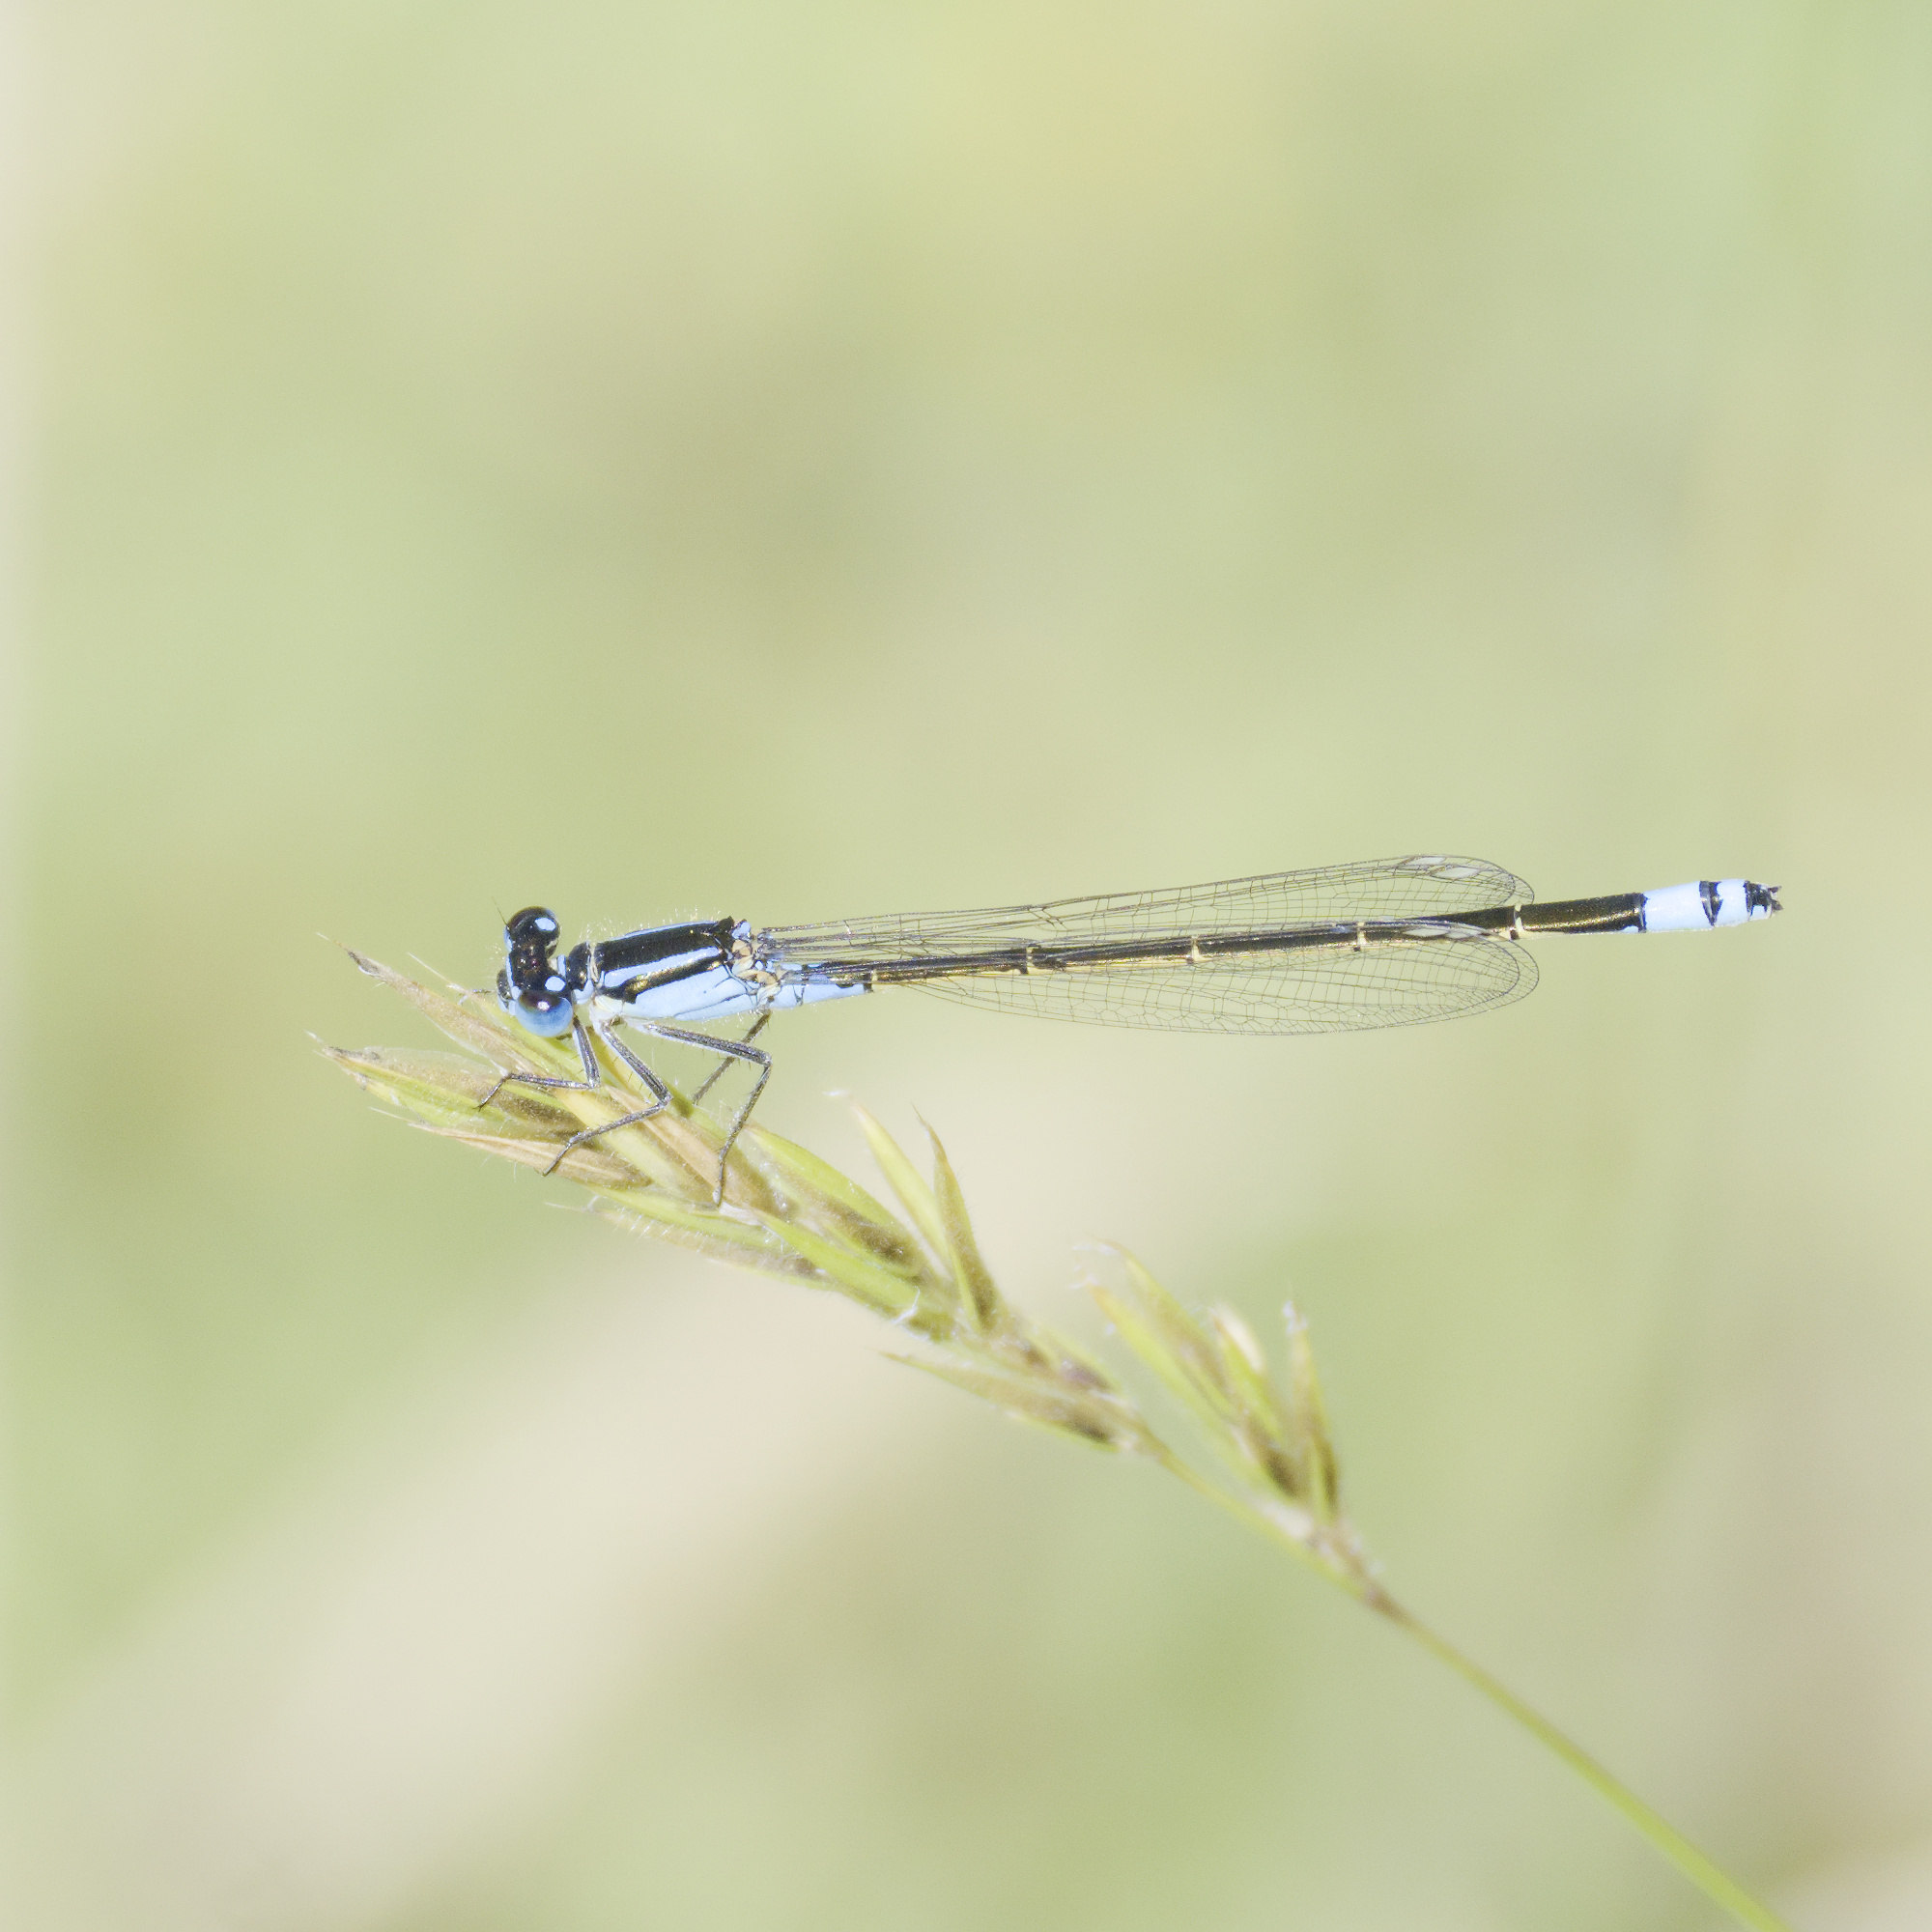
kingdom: Animalia
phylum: Arthropoda
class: Insecta
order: Odonata
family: Coenagrionidae
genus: Ischnura
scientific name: Ischnura heterosticta
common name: Common bluetail
